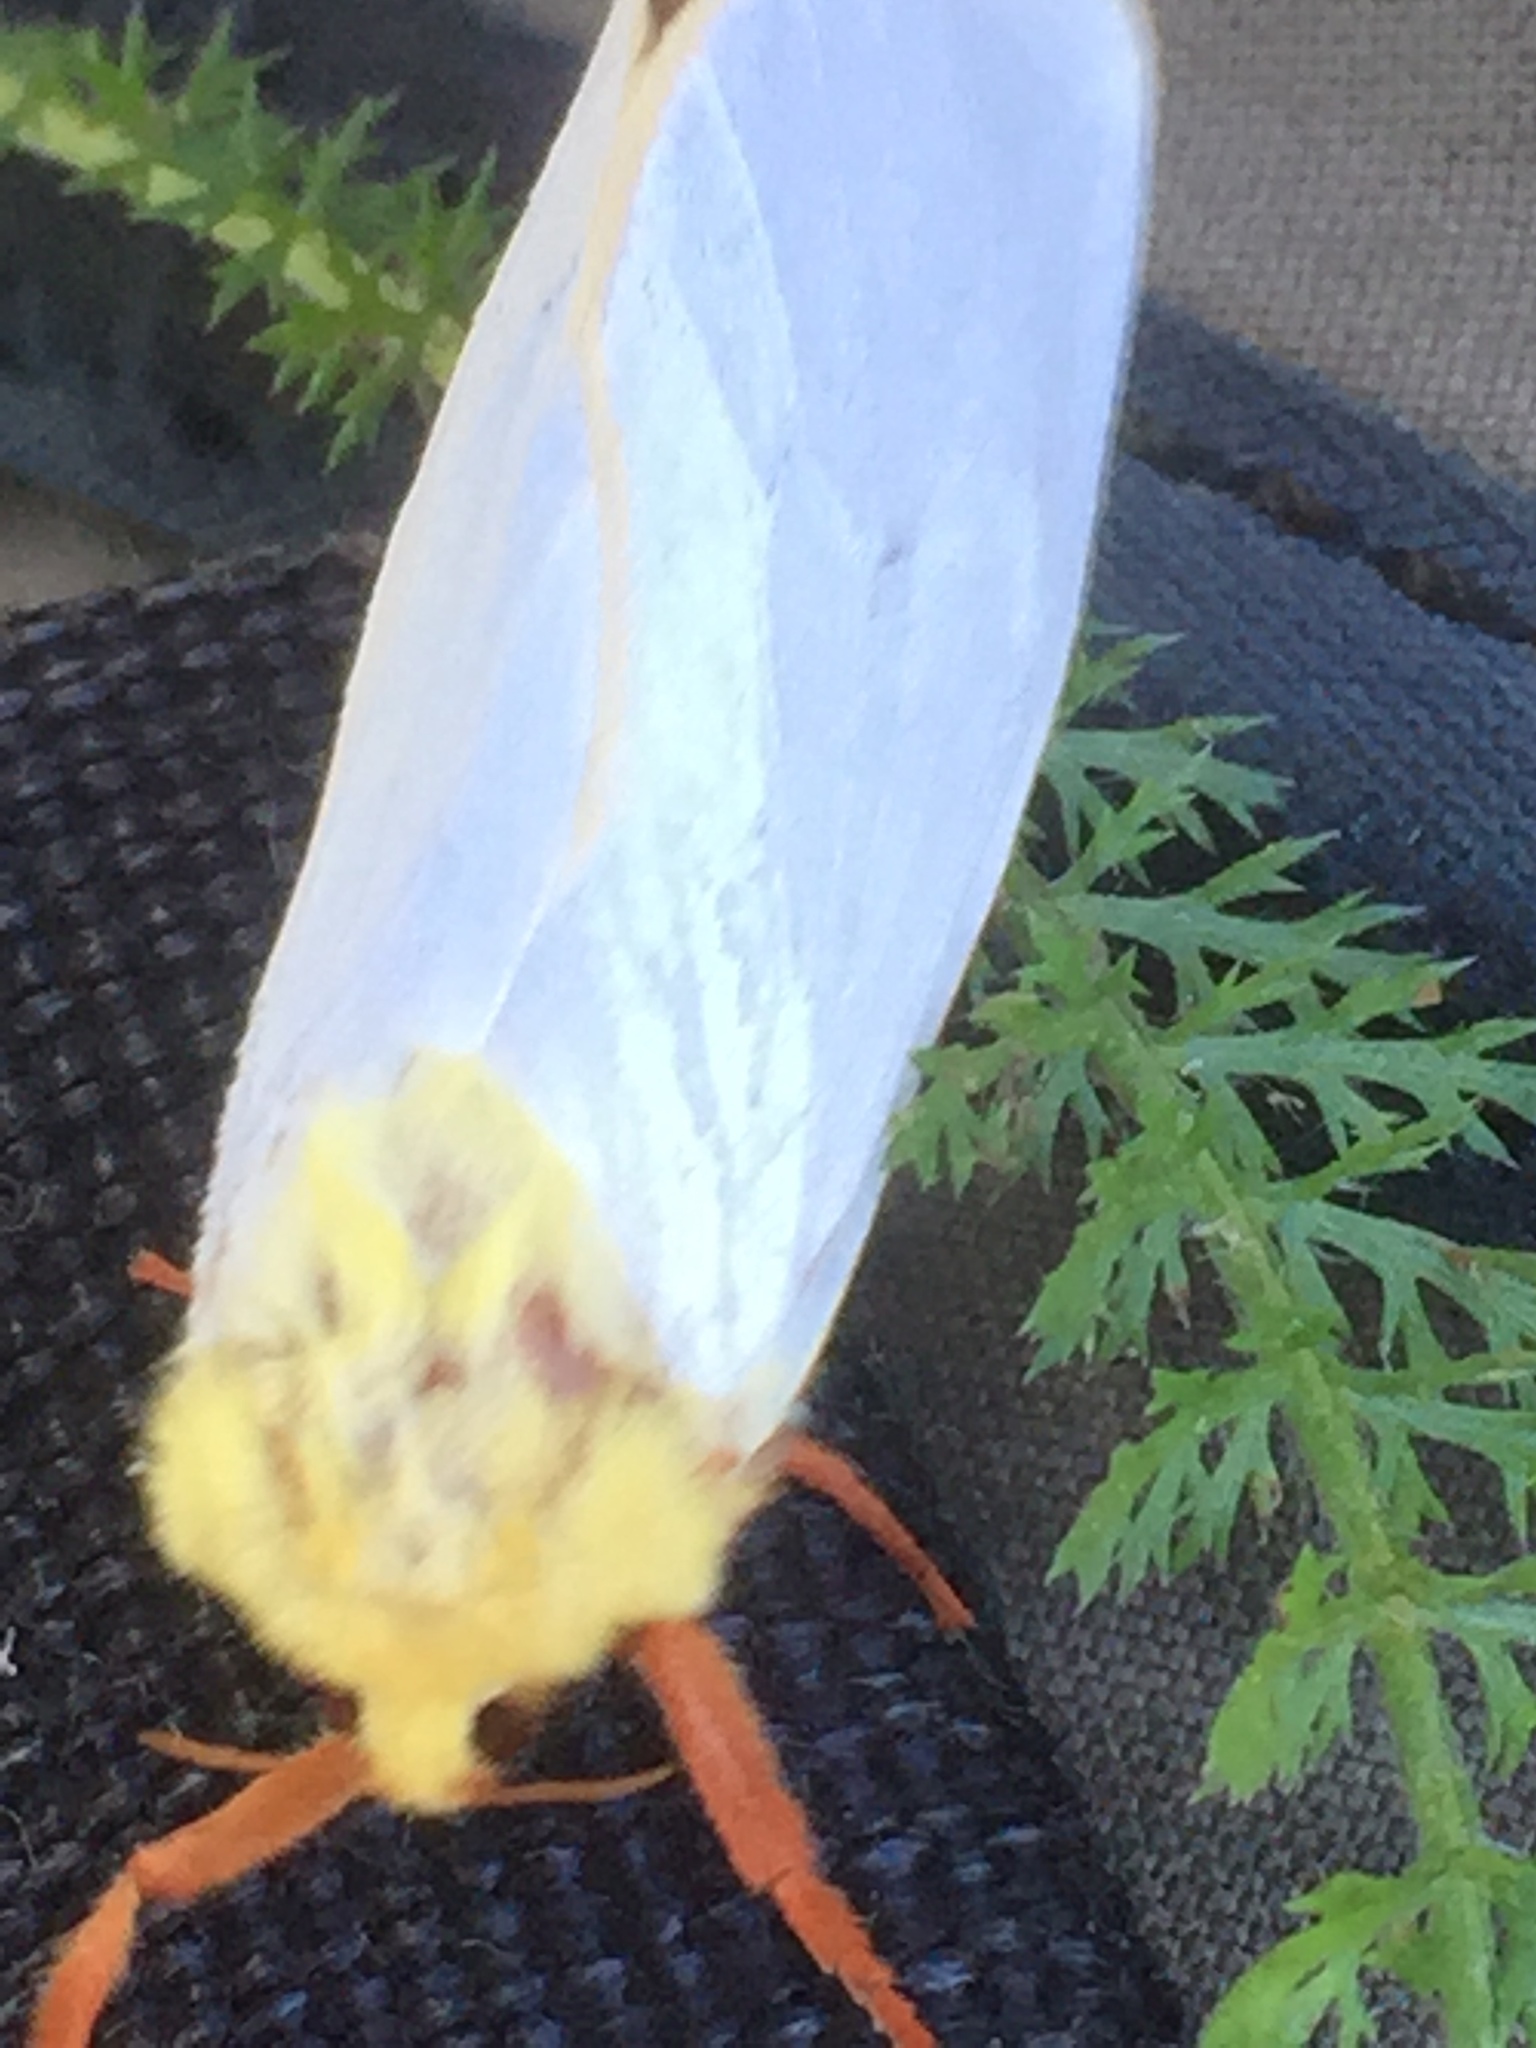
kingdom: Animalia
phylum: Arthropoda
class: Insecta
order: Lepidoptera
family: Hepialidae
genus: Hepialus
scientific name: Hepialus humuli
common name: Ghost moth
